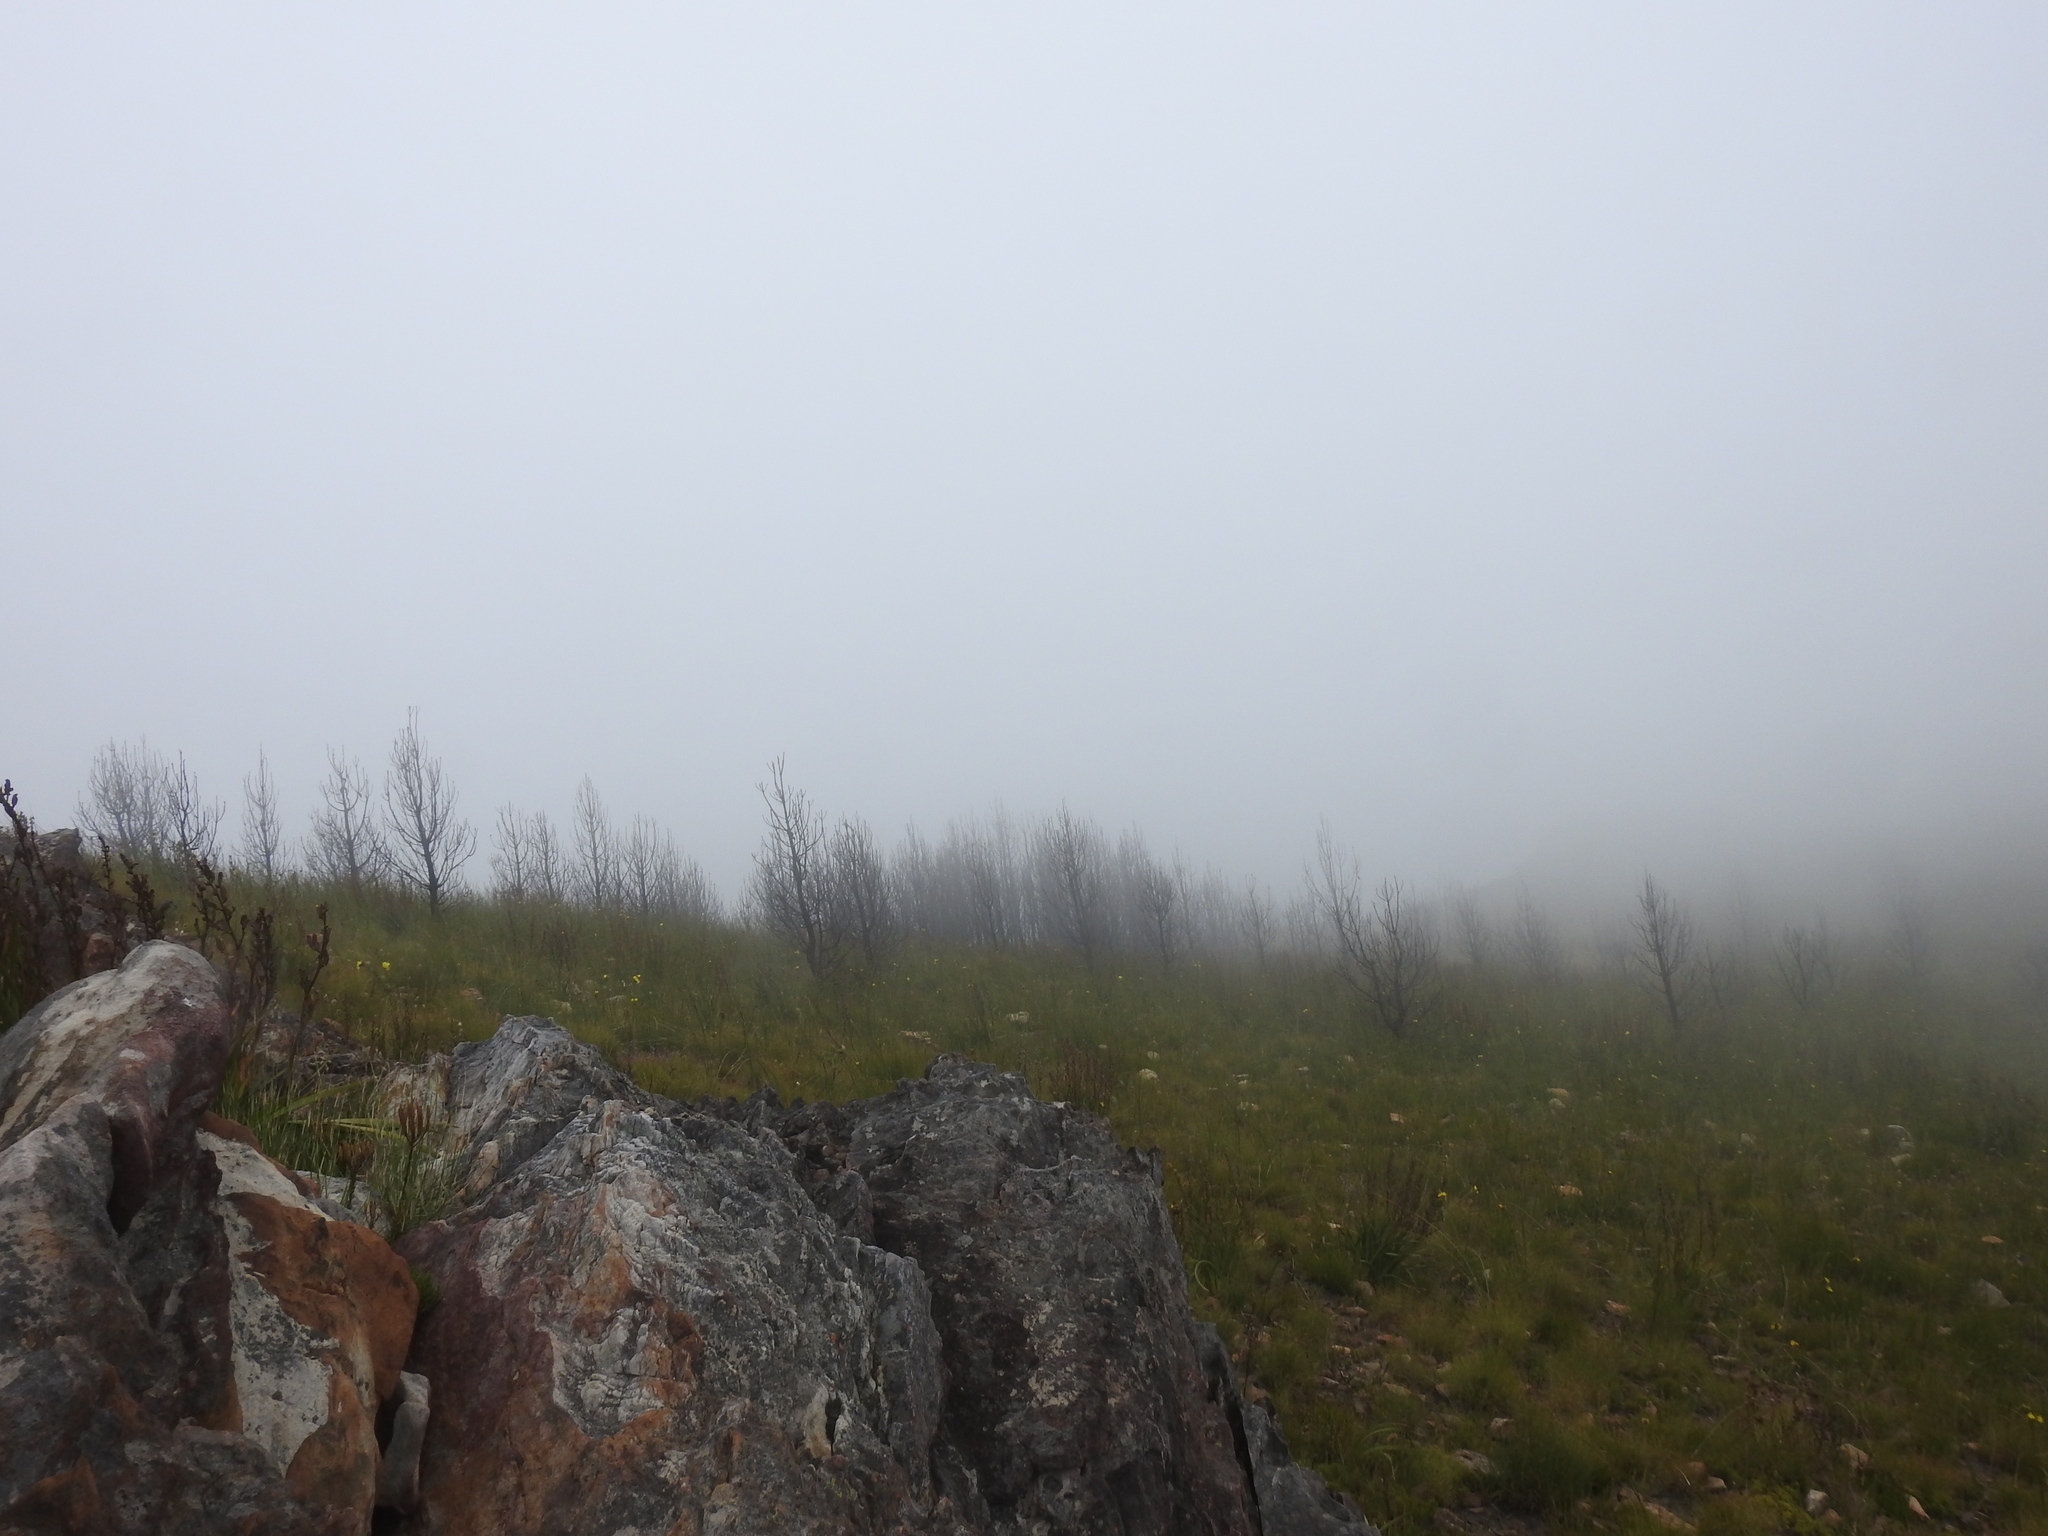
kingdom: Plantae
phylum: Tracheophyta
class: Pinopsida
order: Pinales
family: Pinaceae
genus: Pinus
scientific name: Pinus pinaster
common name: Maritime pine
